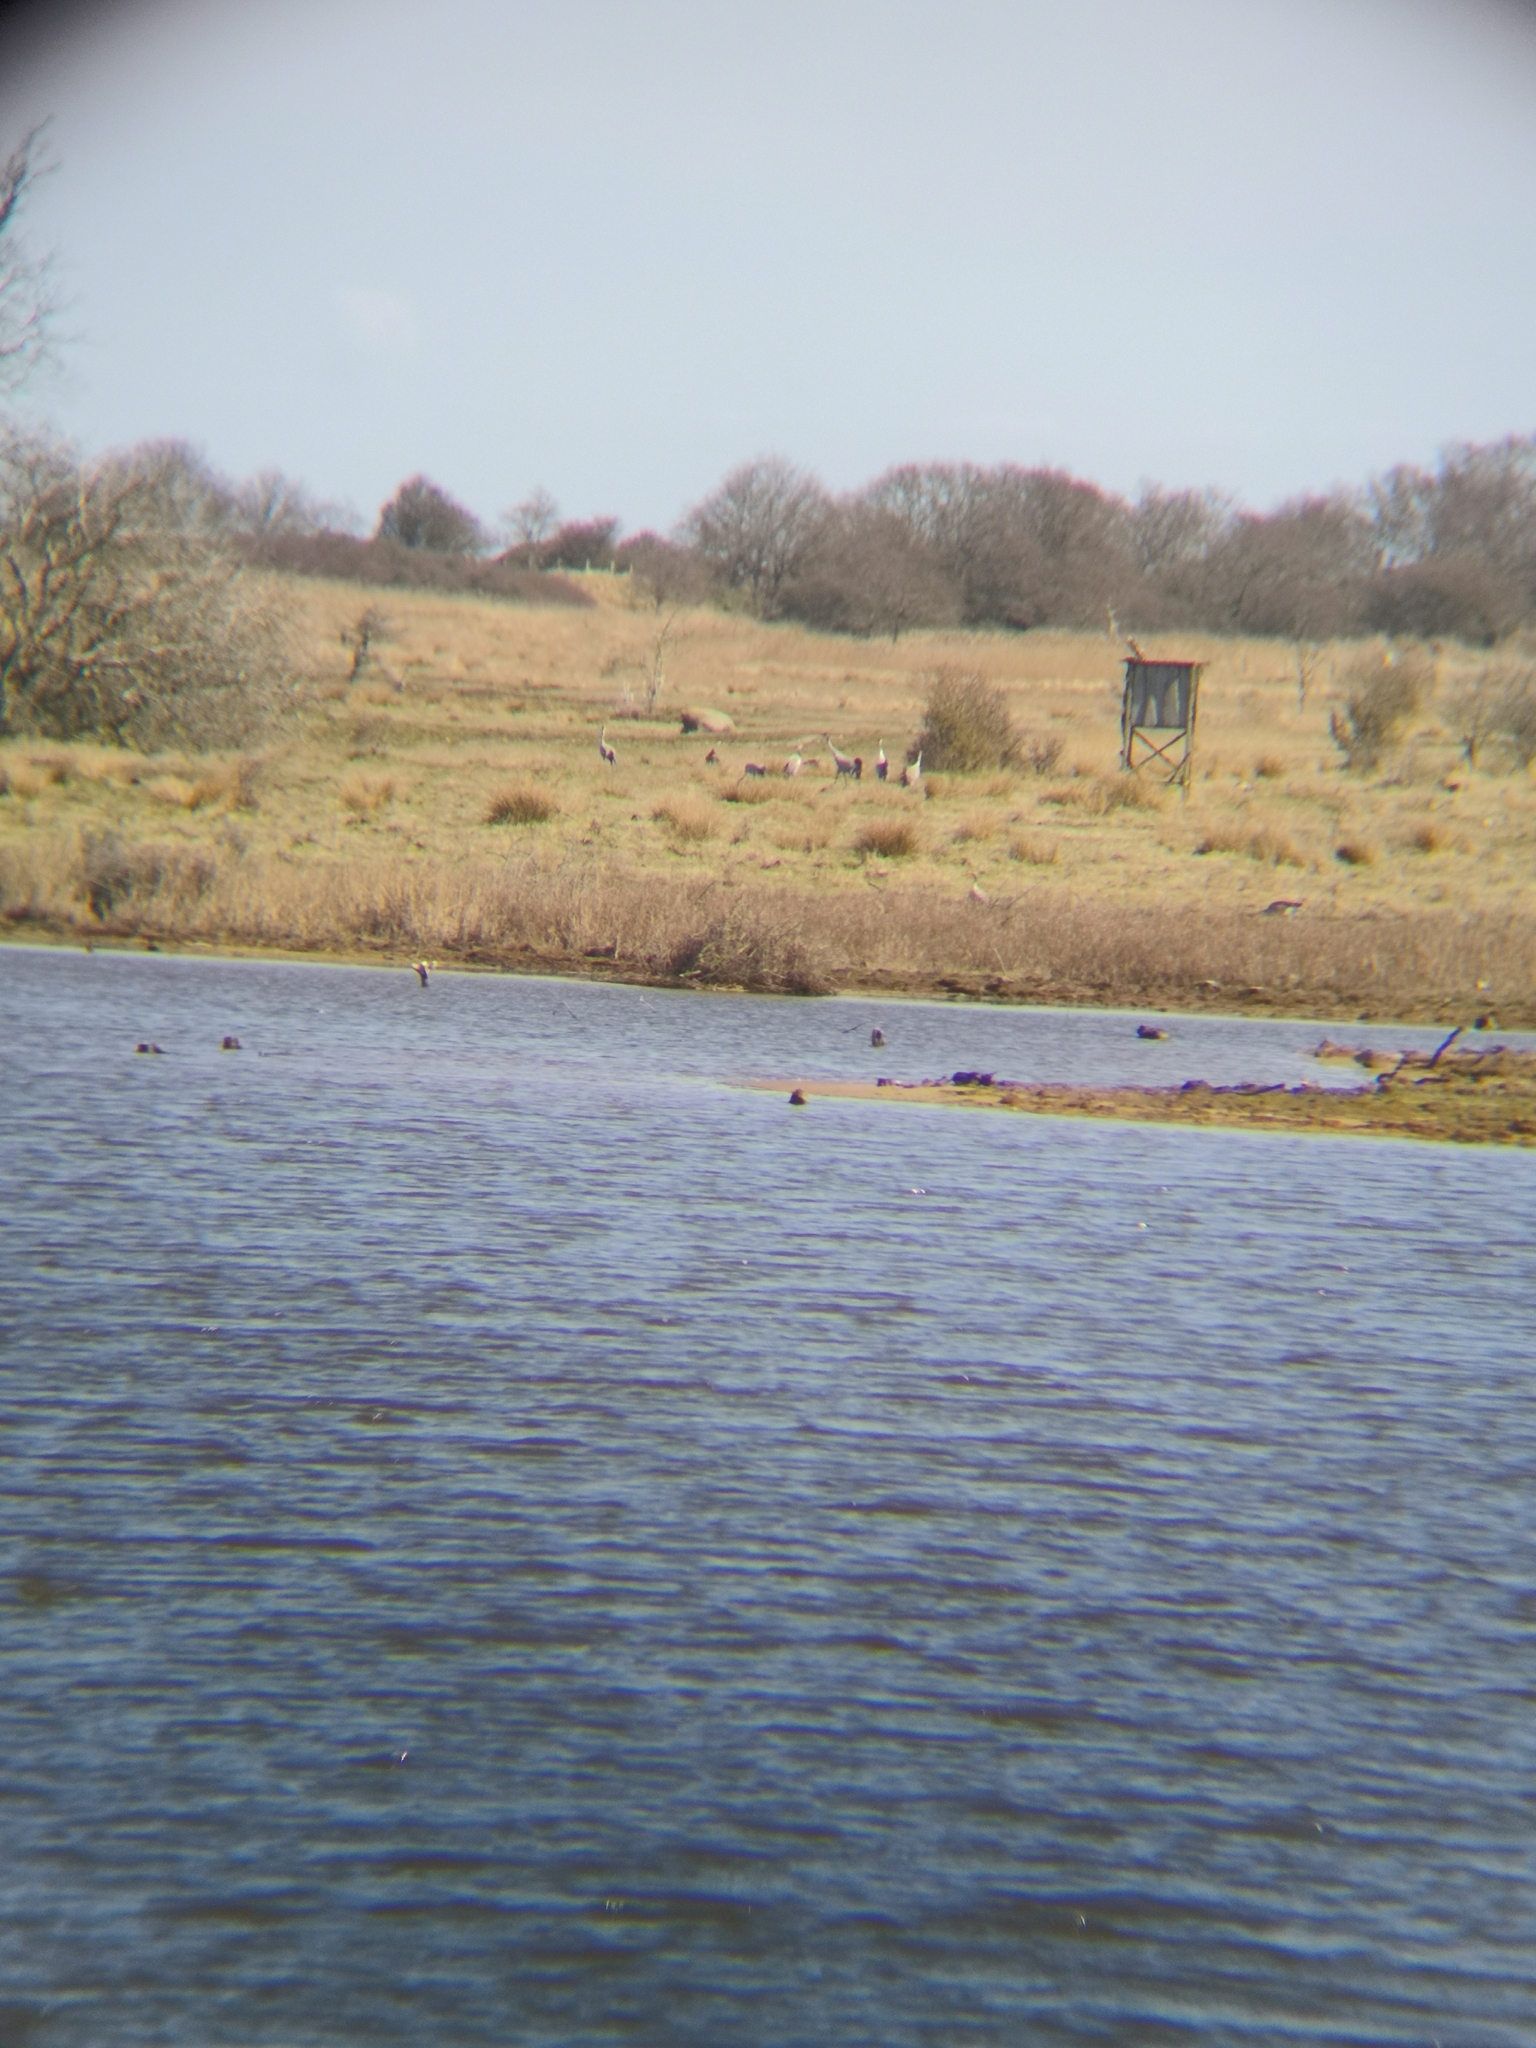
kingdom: Animalia
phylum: Chordata
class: Aves
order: Gruiformes
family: Gruidae
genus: Grus
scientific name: Grus grus
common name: Common crane
